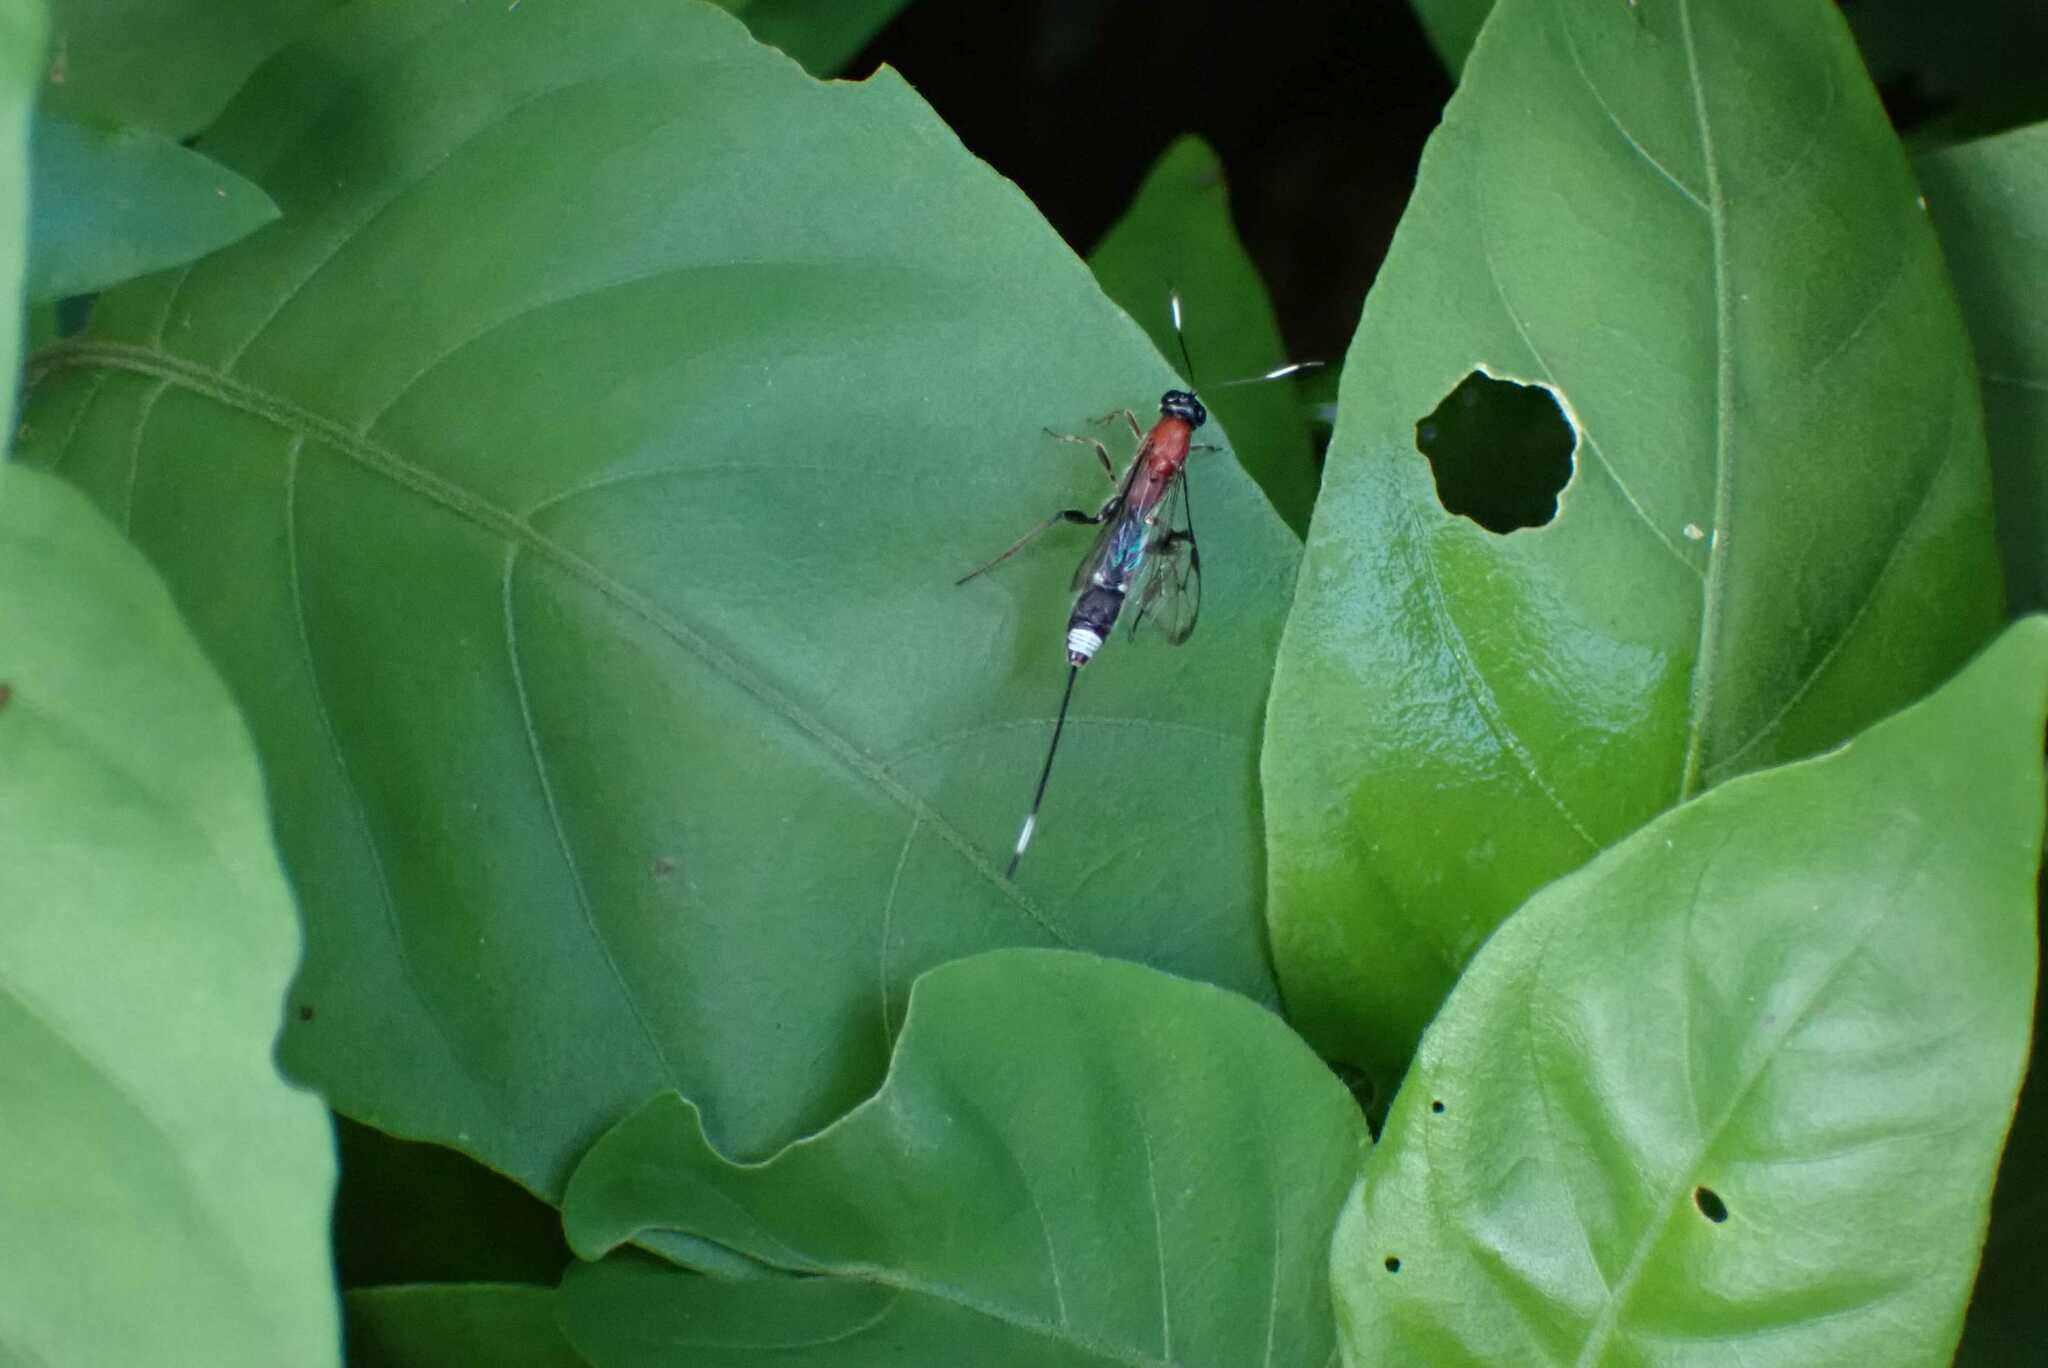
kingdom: Animalia
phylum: Arthropoda
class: Insecta
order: Hymenoptera
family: Ichneumonidae
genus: Xorides
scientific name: Xorides maculiceps
